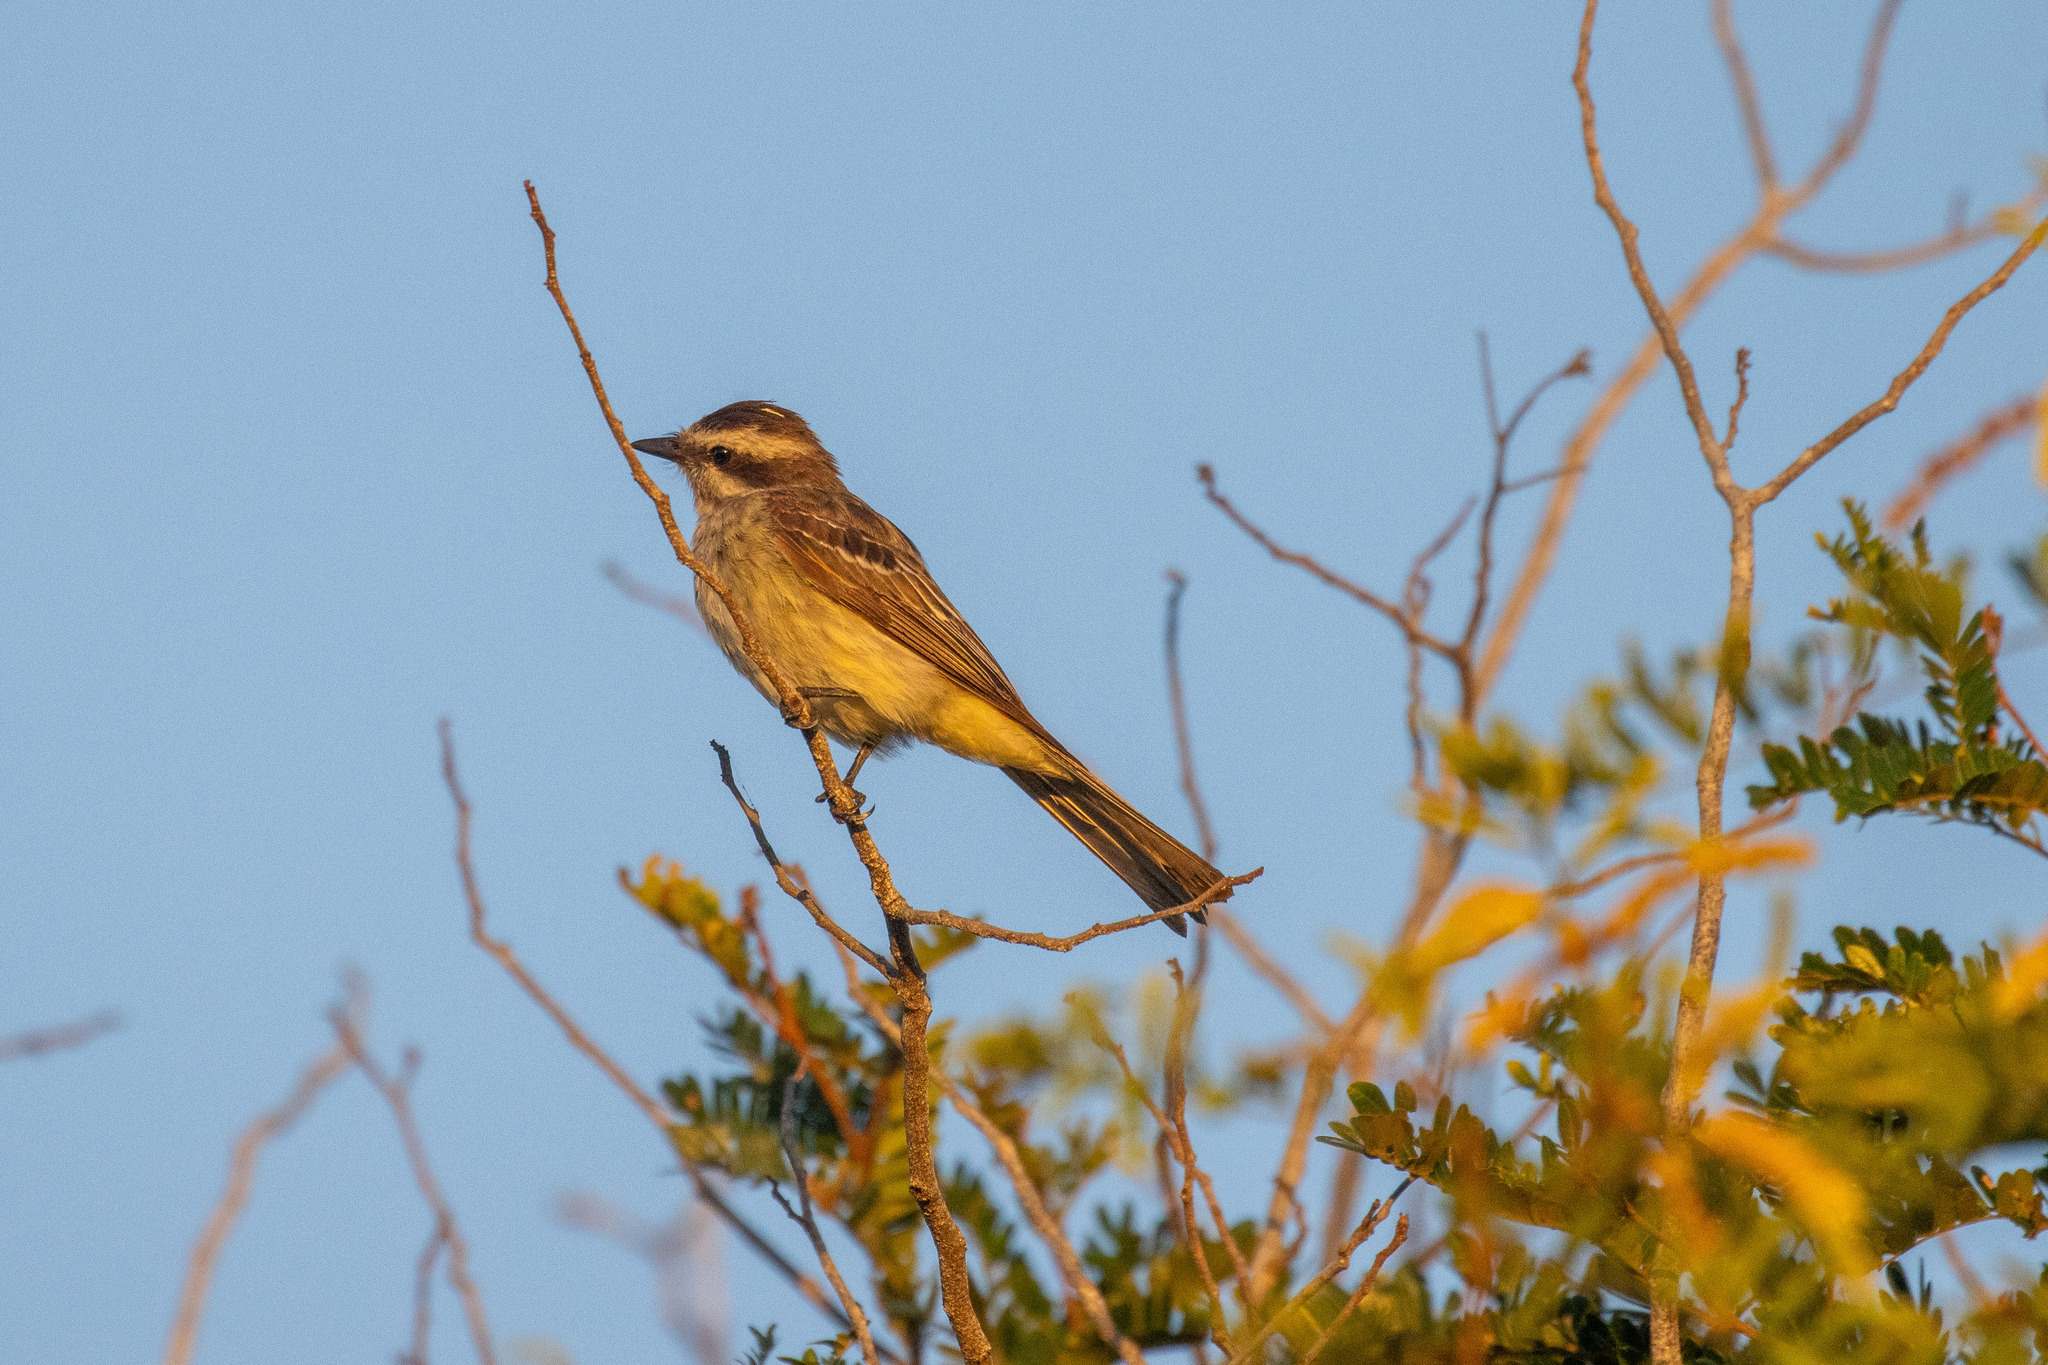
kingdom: Animalia
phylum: Chordata
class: Aves
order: Passeriformes
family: Tyrannidae
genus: Empidonomus
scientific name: Empidonomus varius
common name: Variegated flycatcher
